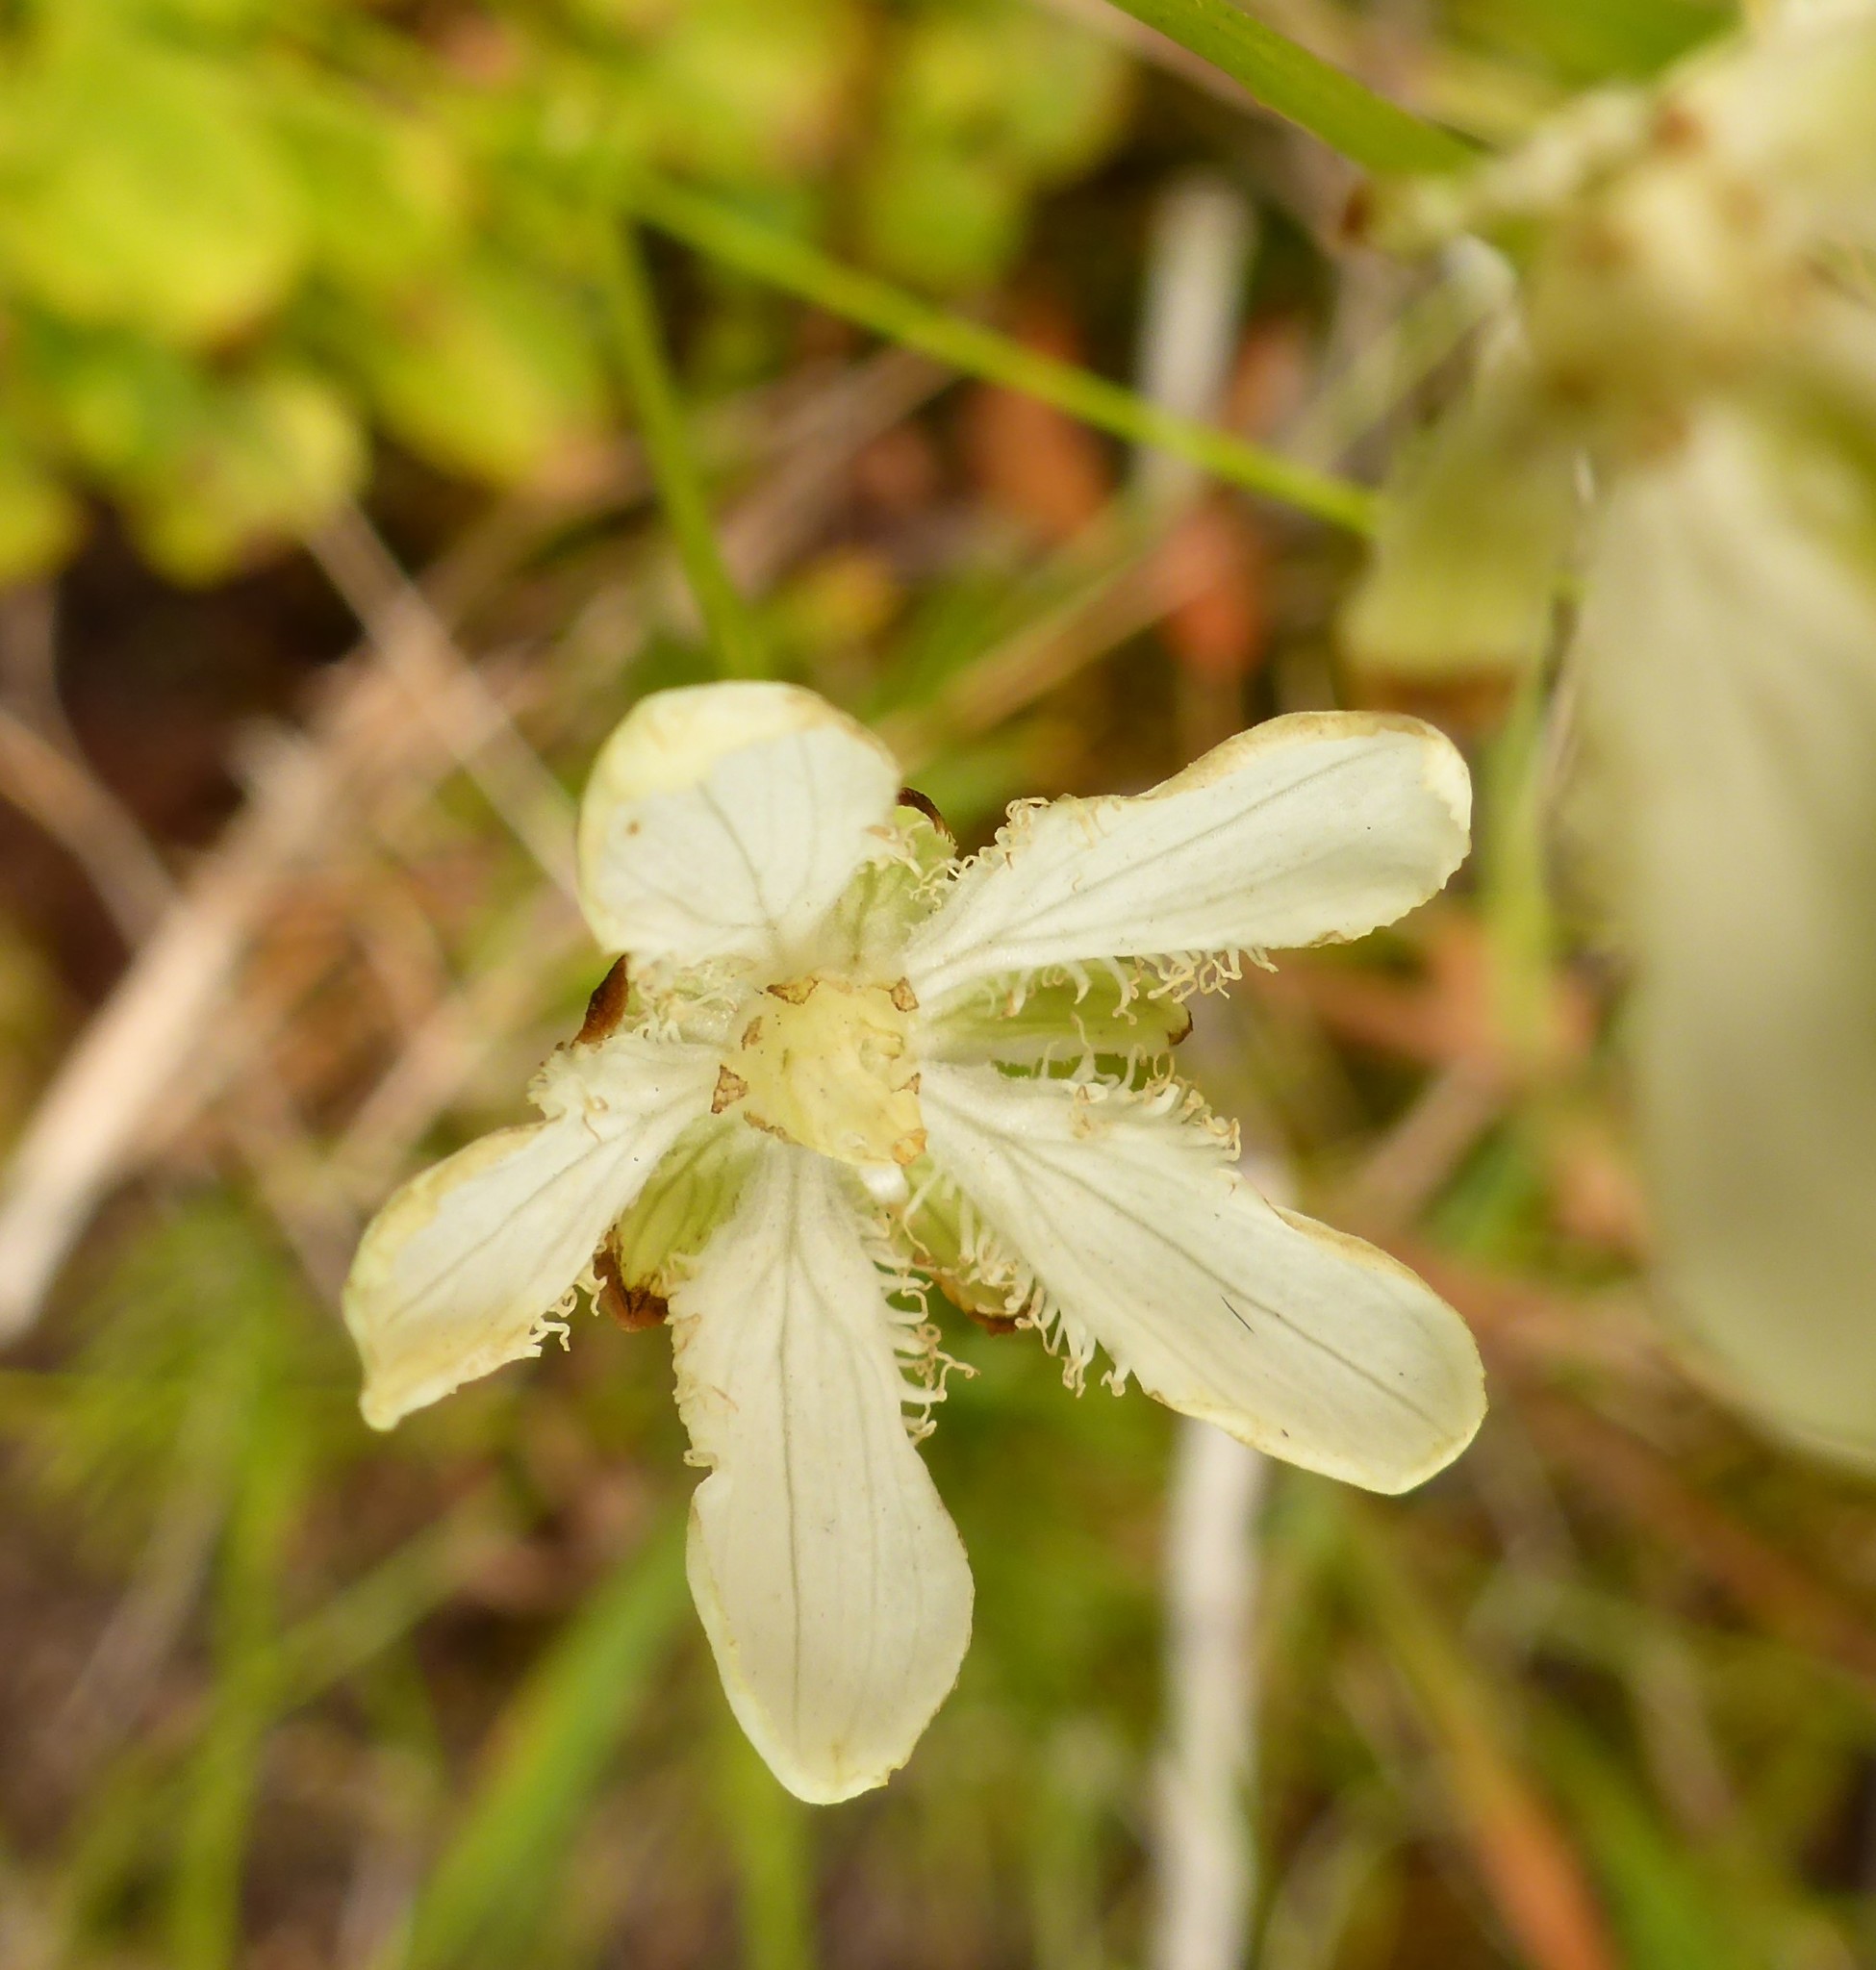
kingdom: Plantae
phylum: Tracheophyta
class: Magnoliopsida
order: Celastrales
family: Parnassiaceae
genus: Parnassia
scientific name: Parnassia fimbriata
